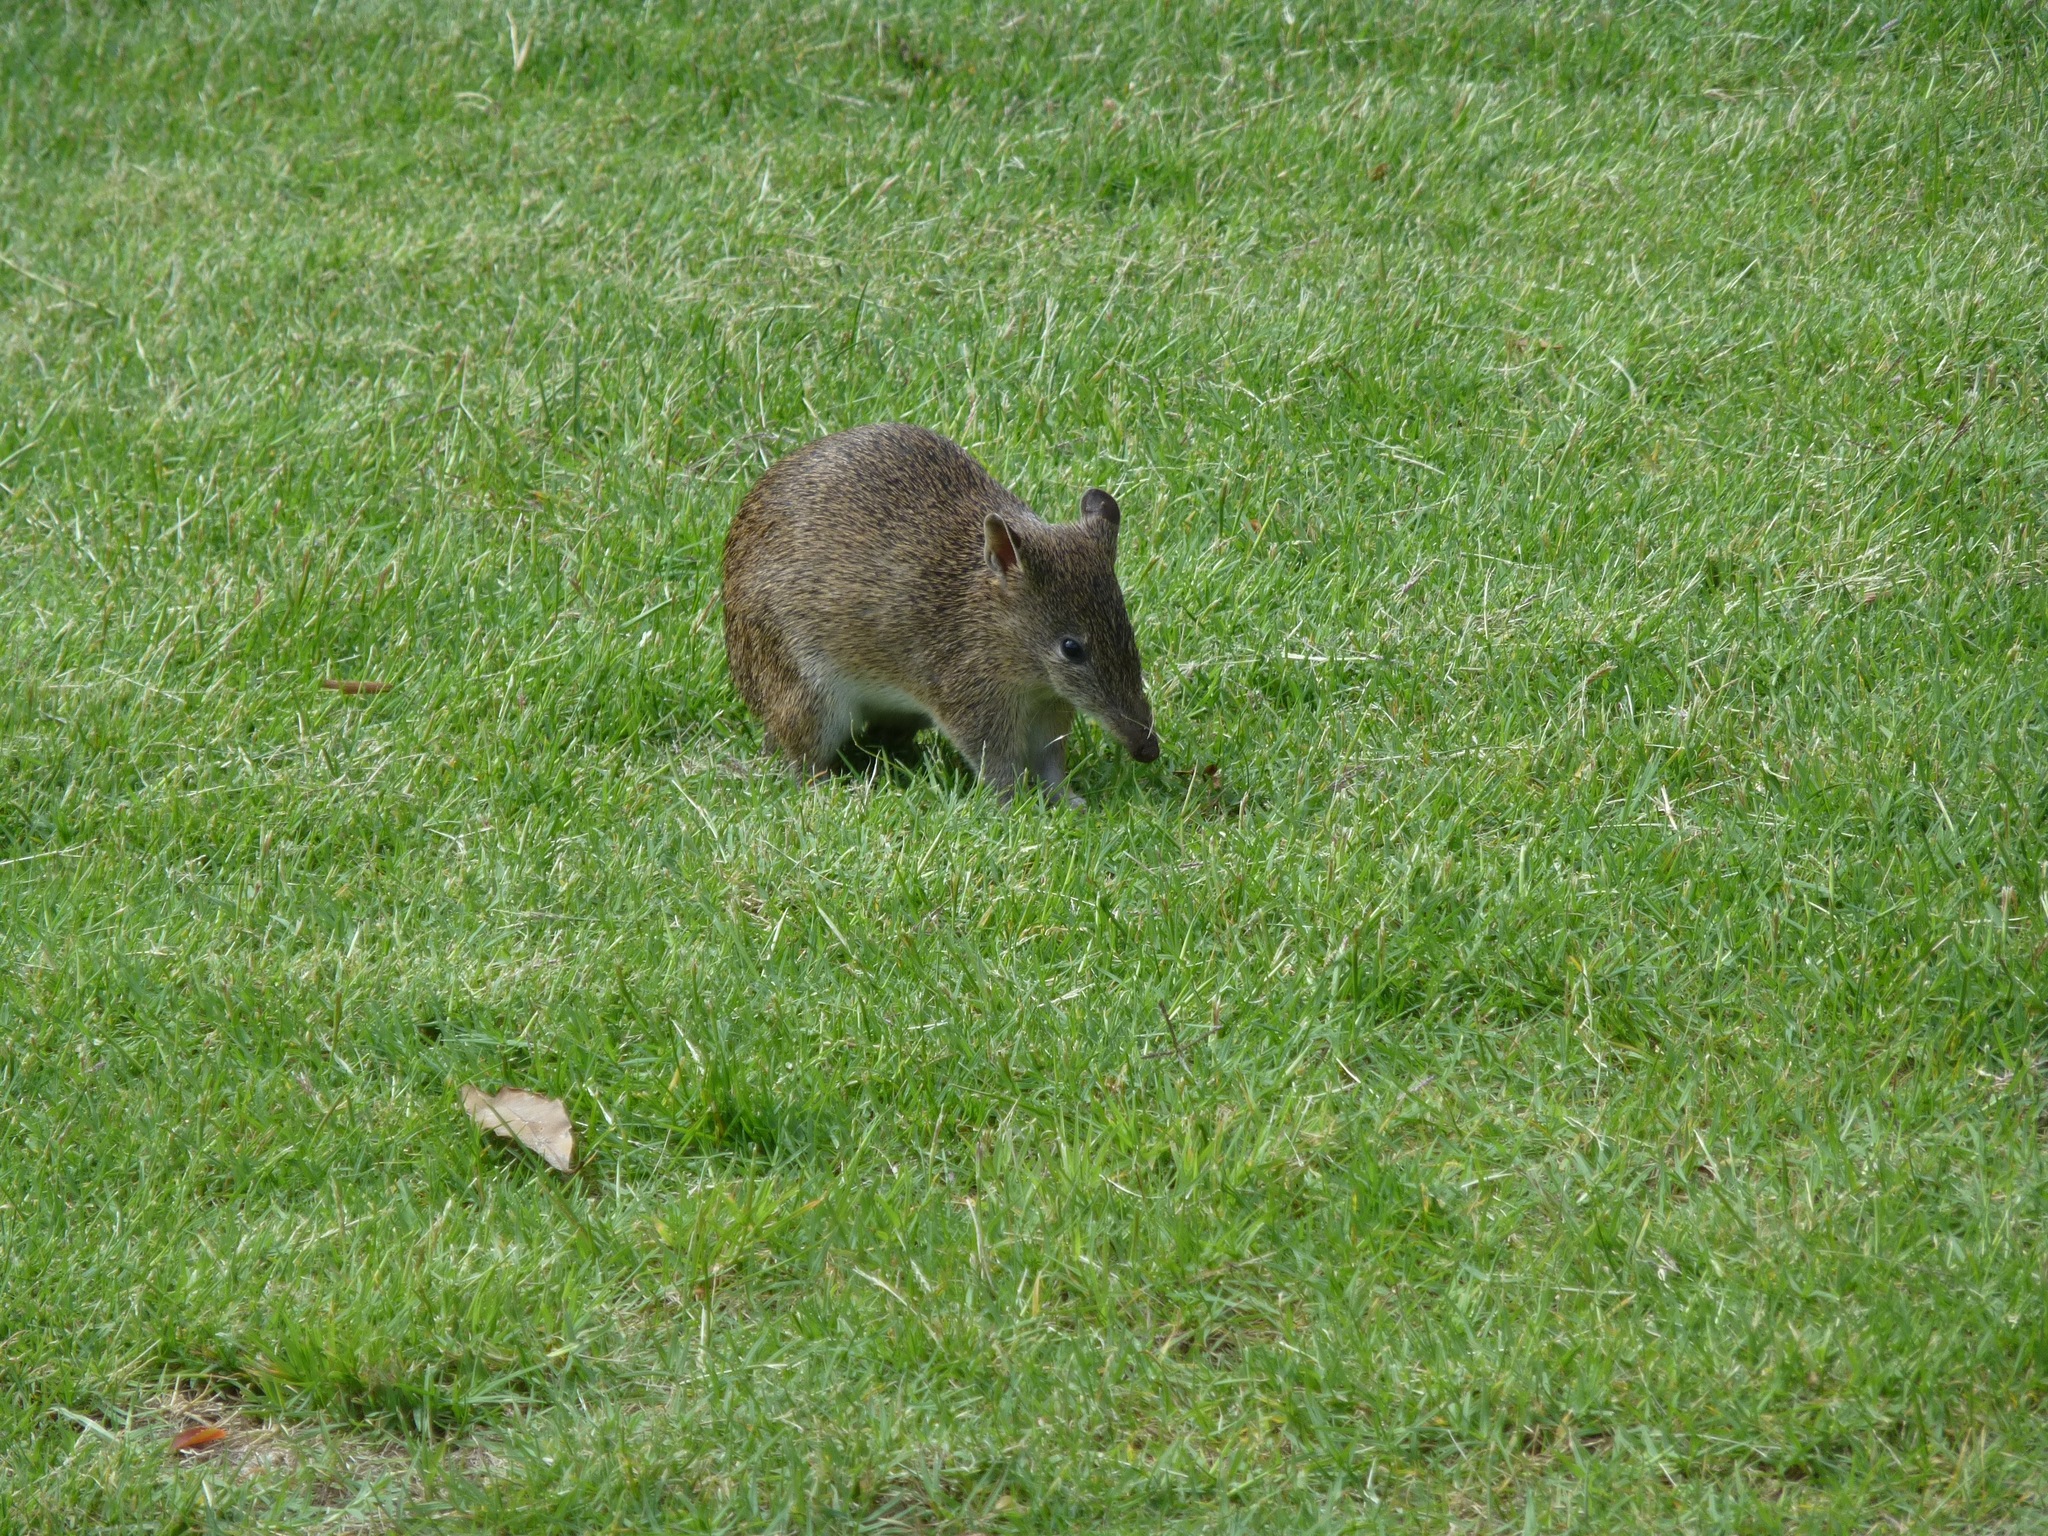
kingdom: Animalia
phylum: Chordata
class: Mammalia
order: Peramelemorphia
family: Peramelidae
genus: Isoodon
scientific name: Isoodon obesulus
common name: Southern brown bandicoot
